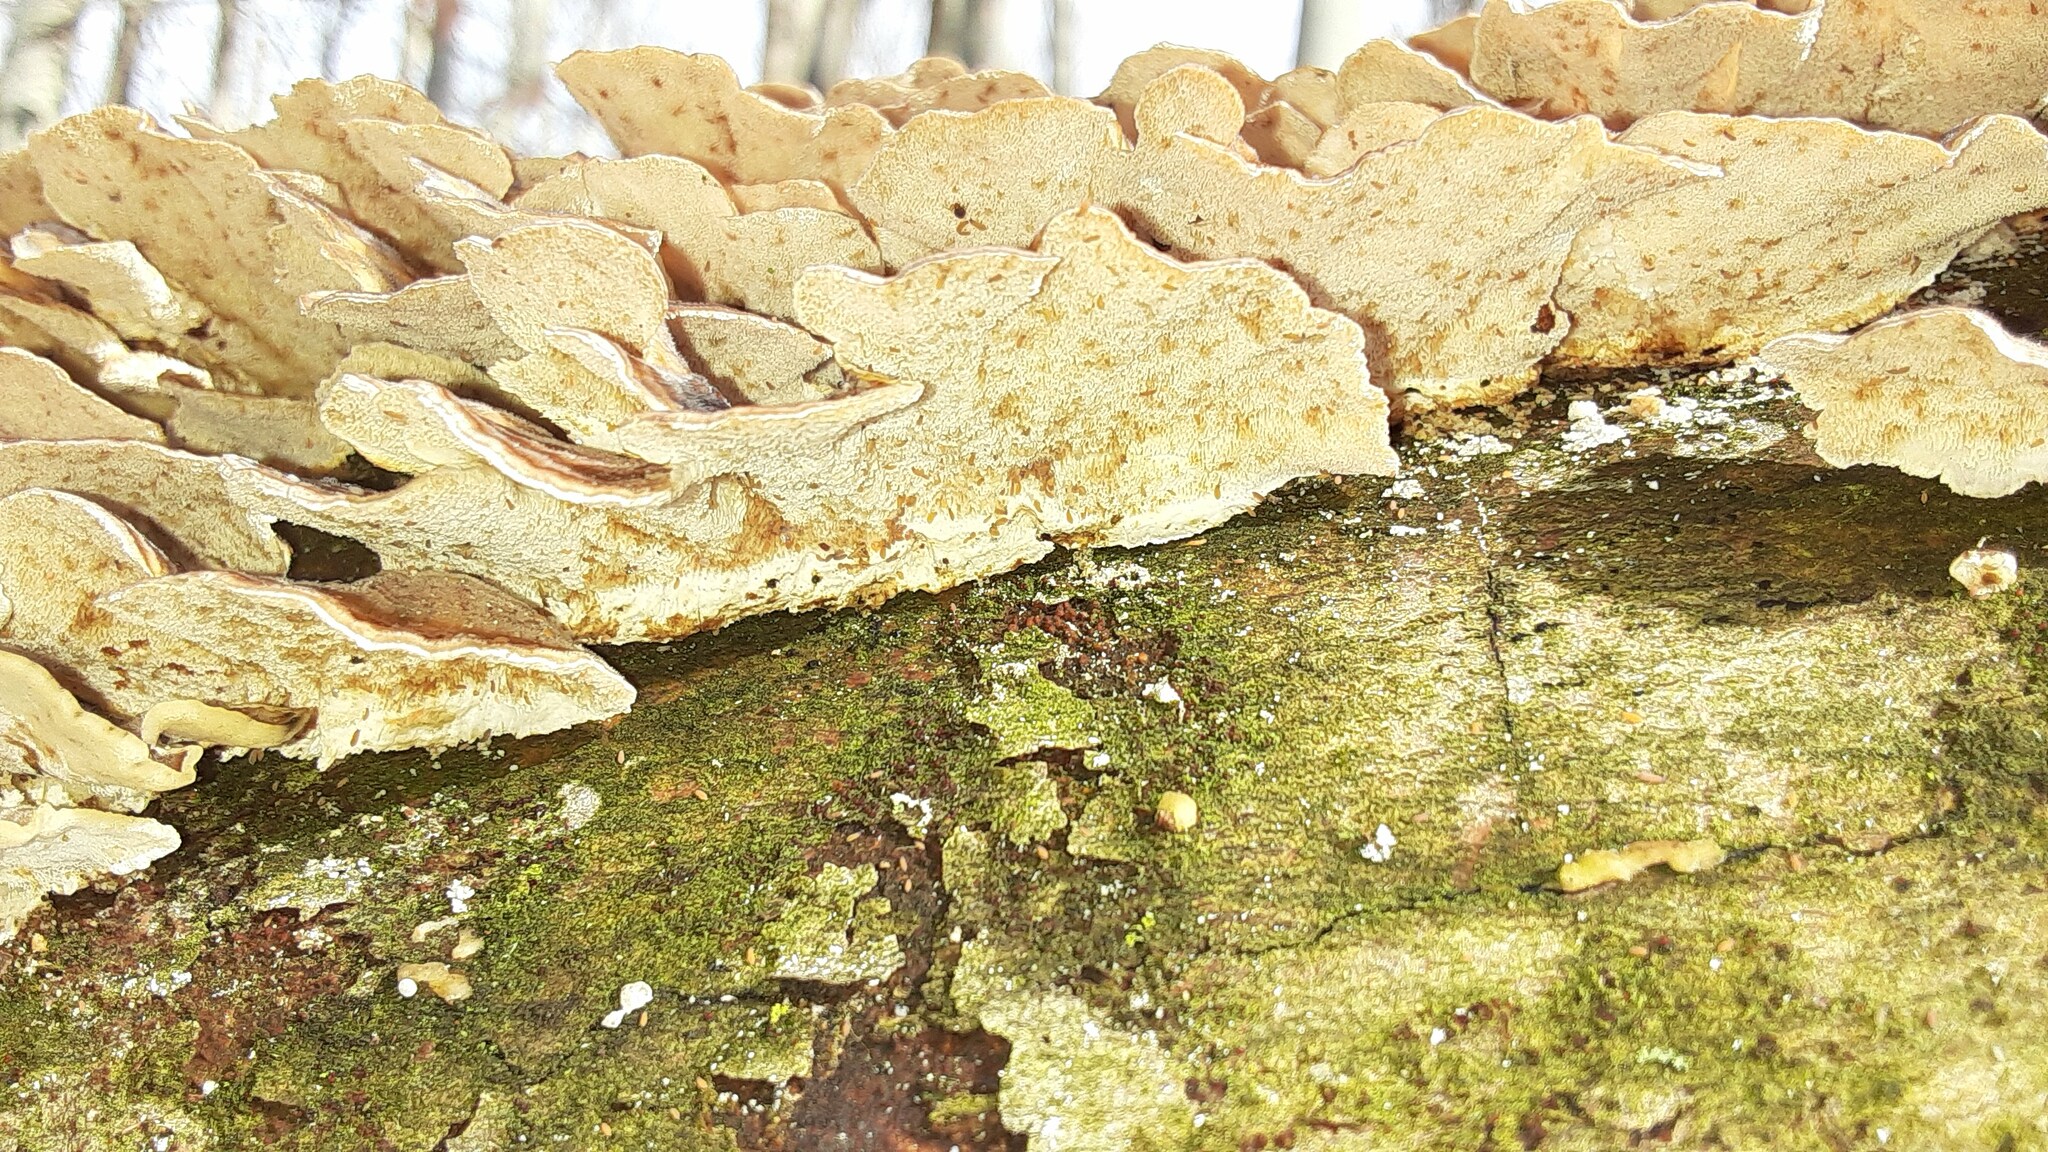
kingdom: Fungi
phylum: Basidiomycota
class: Agaricomycetes
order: Polyporales
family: Polyporaceae
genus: Trametes
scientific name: Trametes versicolor
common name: Turkeytail
